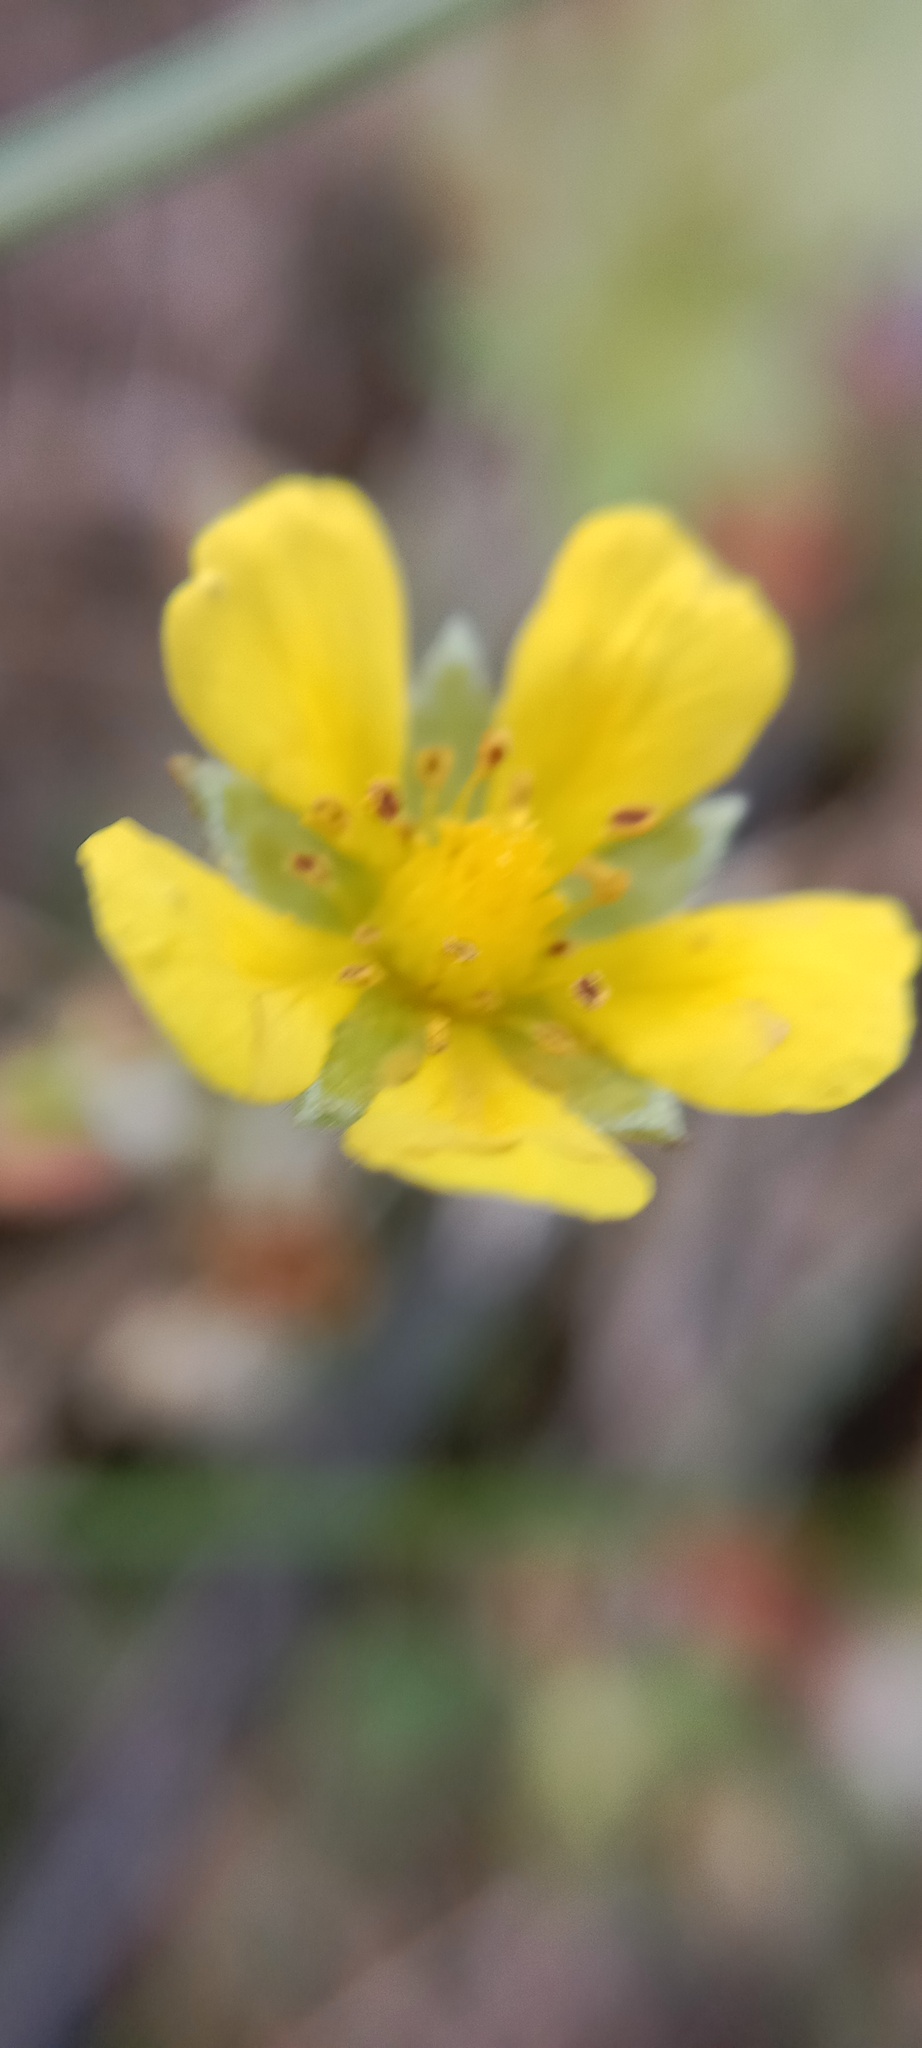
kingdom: Plantae
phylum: Tracheophyta
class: Magnoliopsida
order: Rosales
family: Rosaceae
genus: Potentilla
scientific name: Potentilla argentea
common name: Hoary cinquefoil
